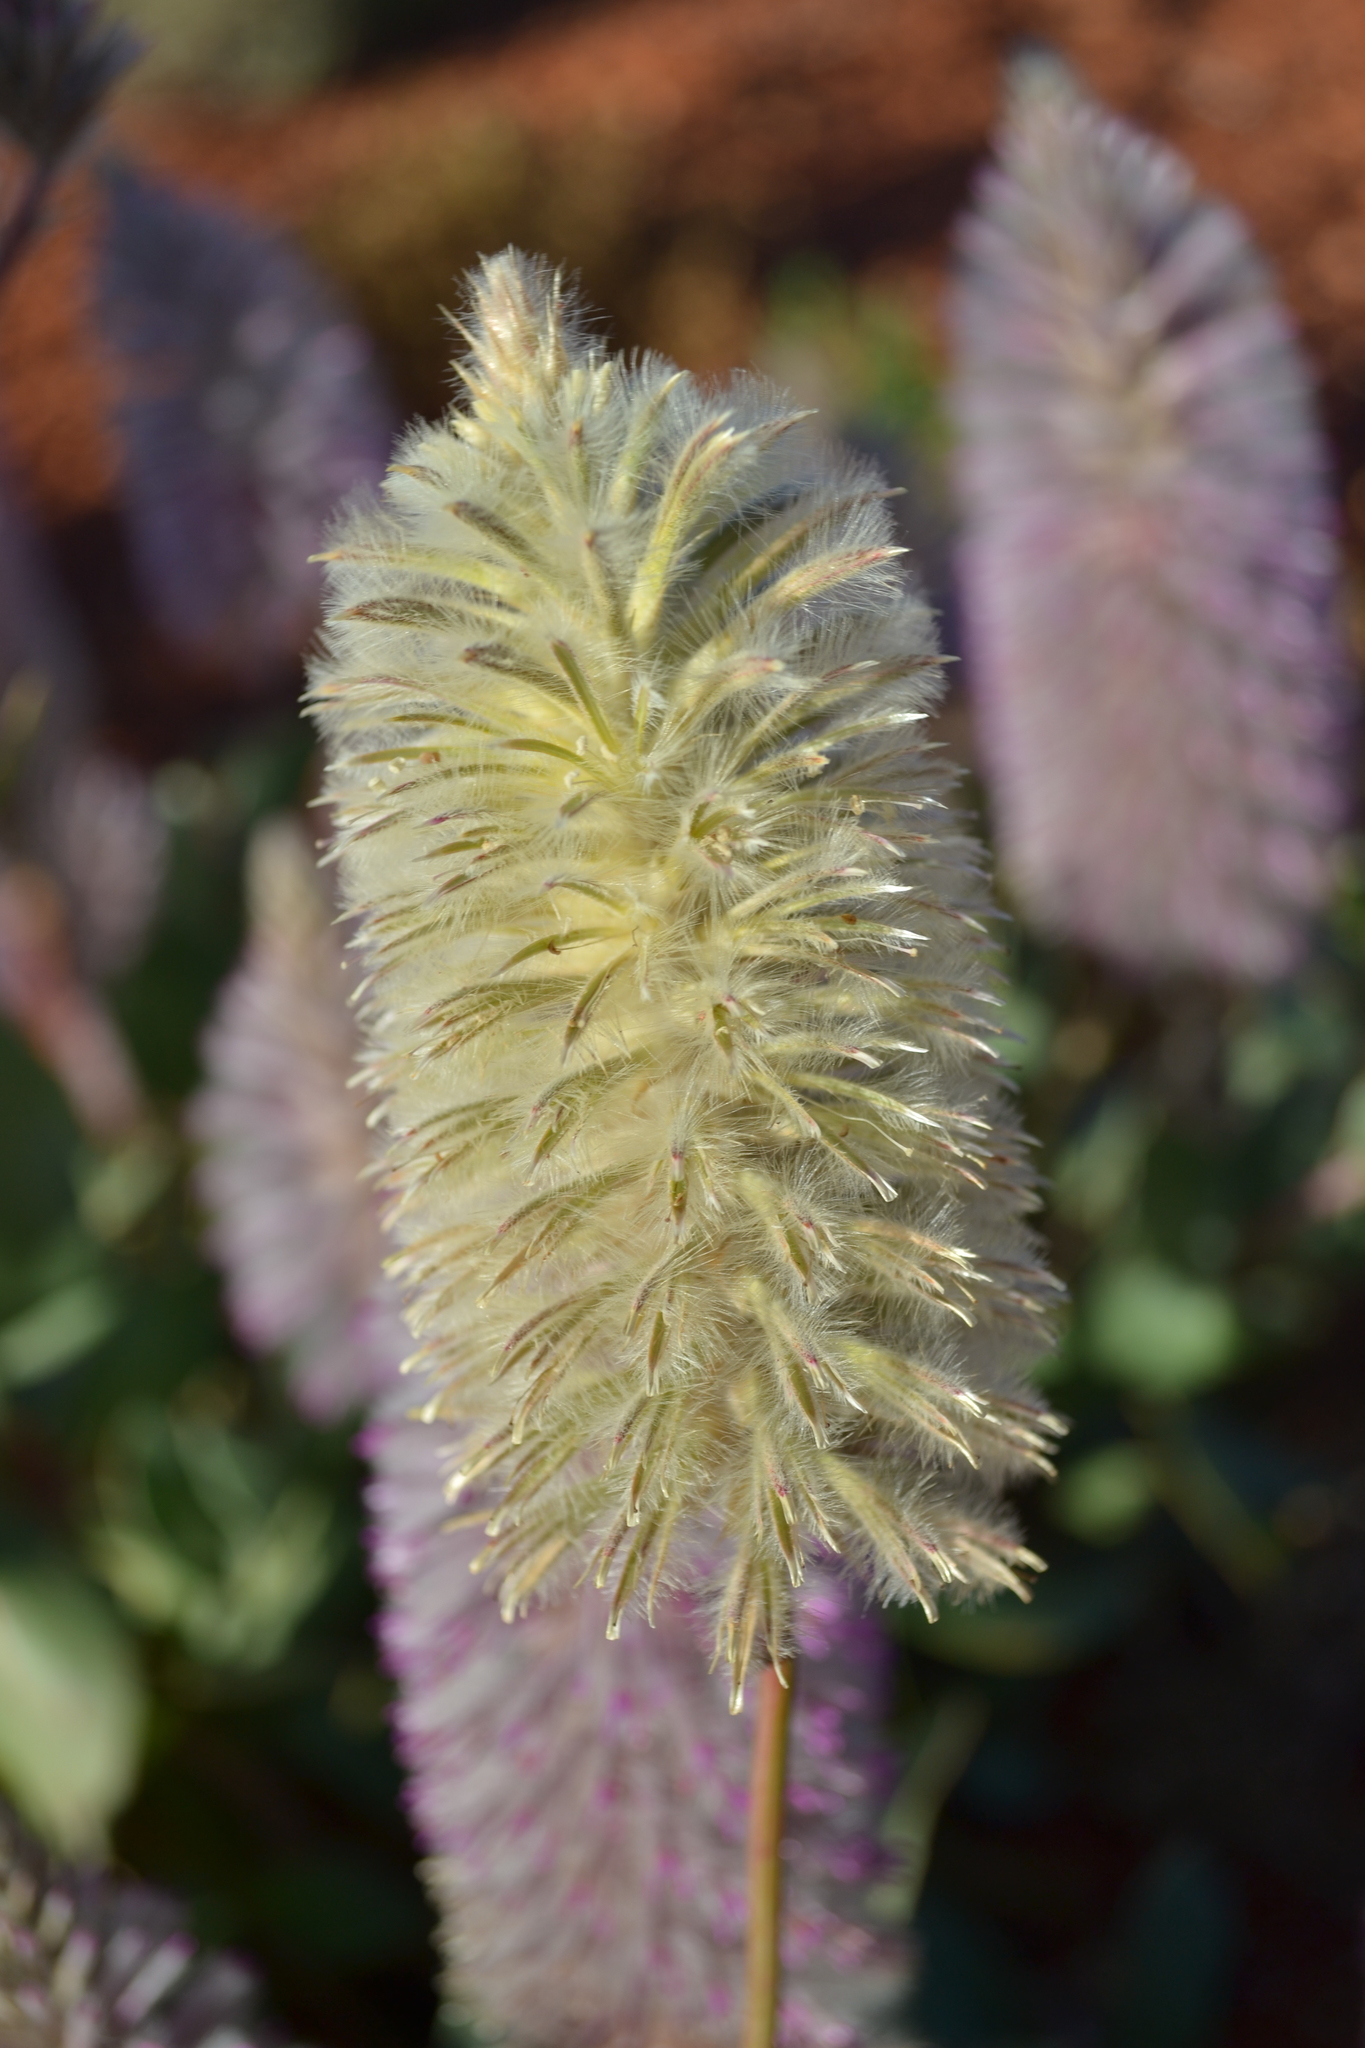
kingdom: Plantae
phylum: Tracheophyta
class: Magnoliopsida
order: Caryophyllales
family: Amaranthaceae
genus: Ptilotus
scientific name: Ptilotus nobilis
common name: Regal-foxtail
